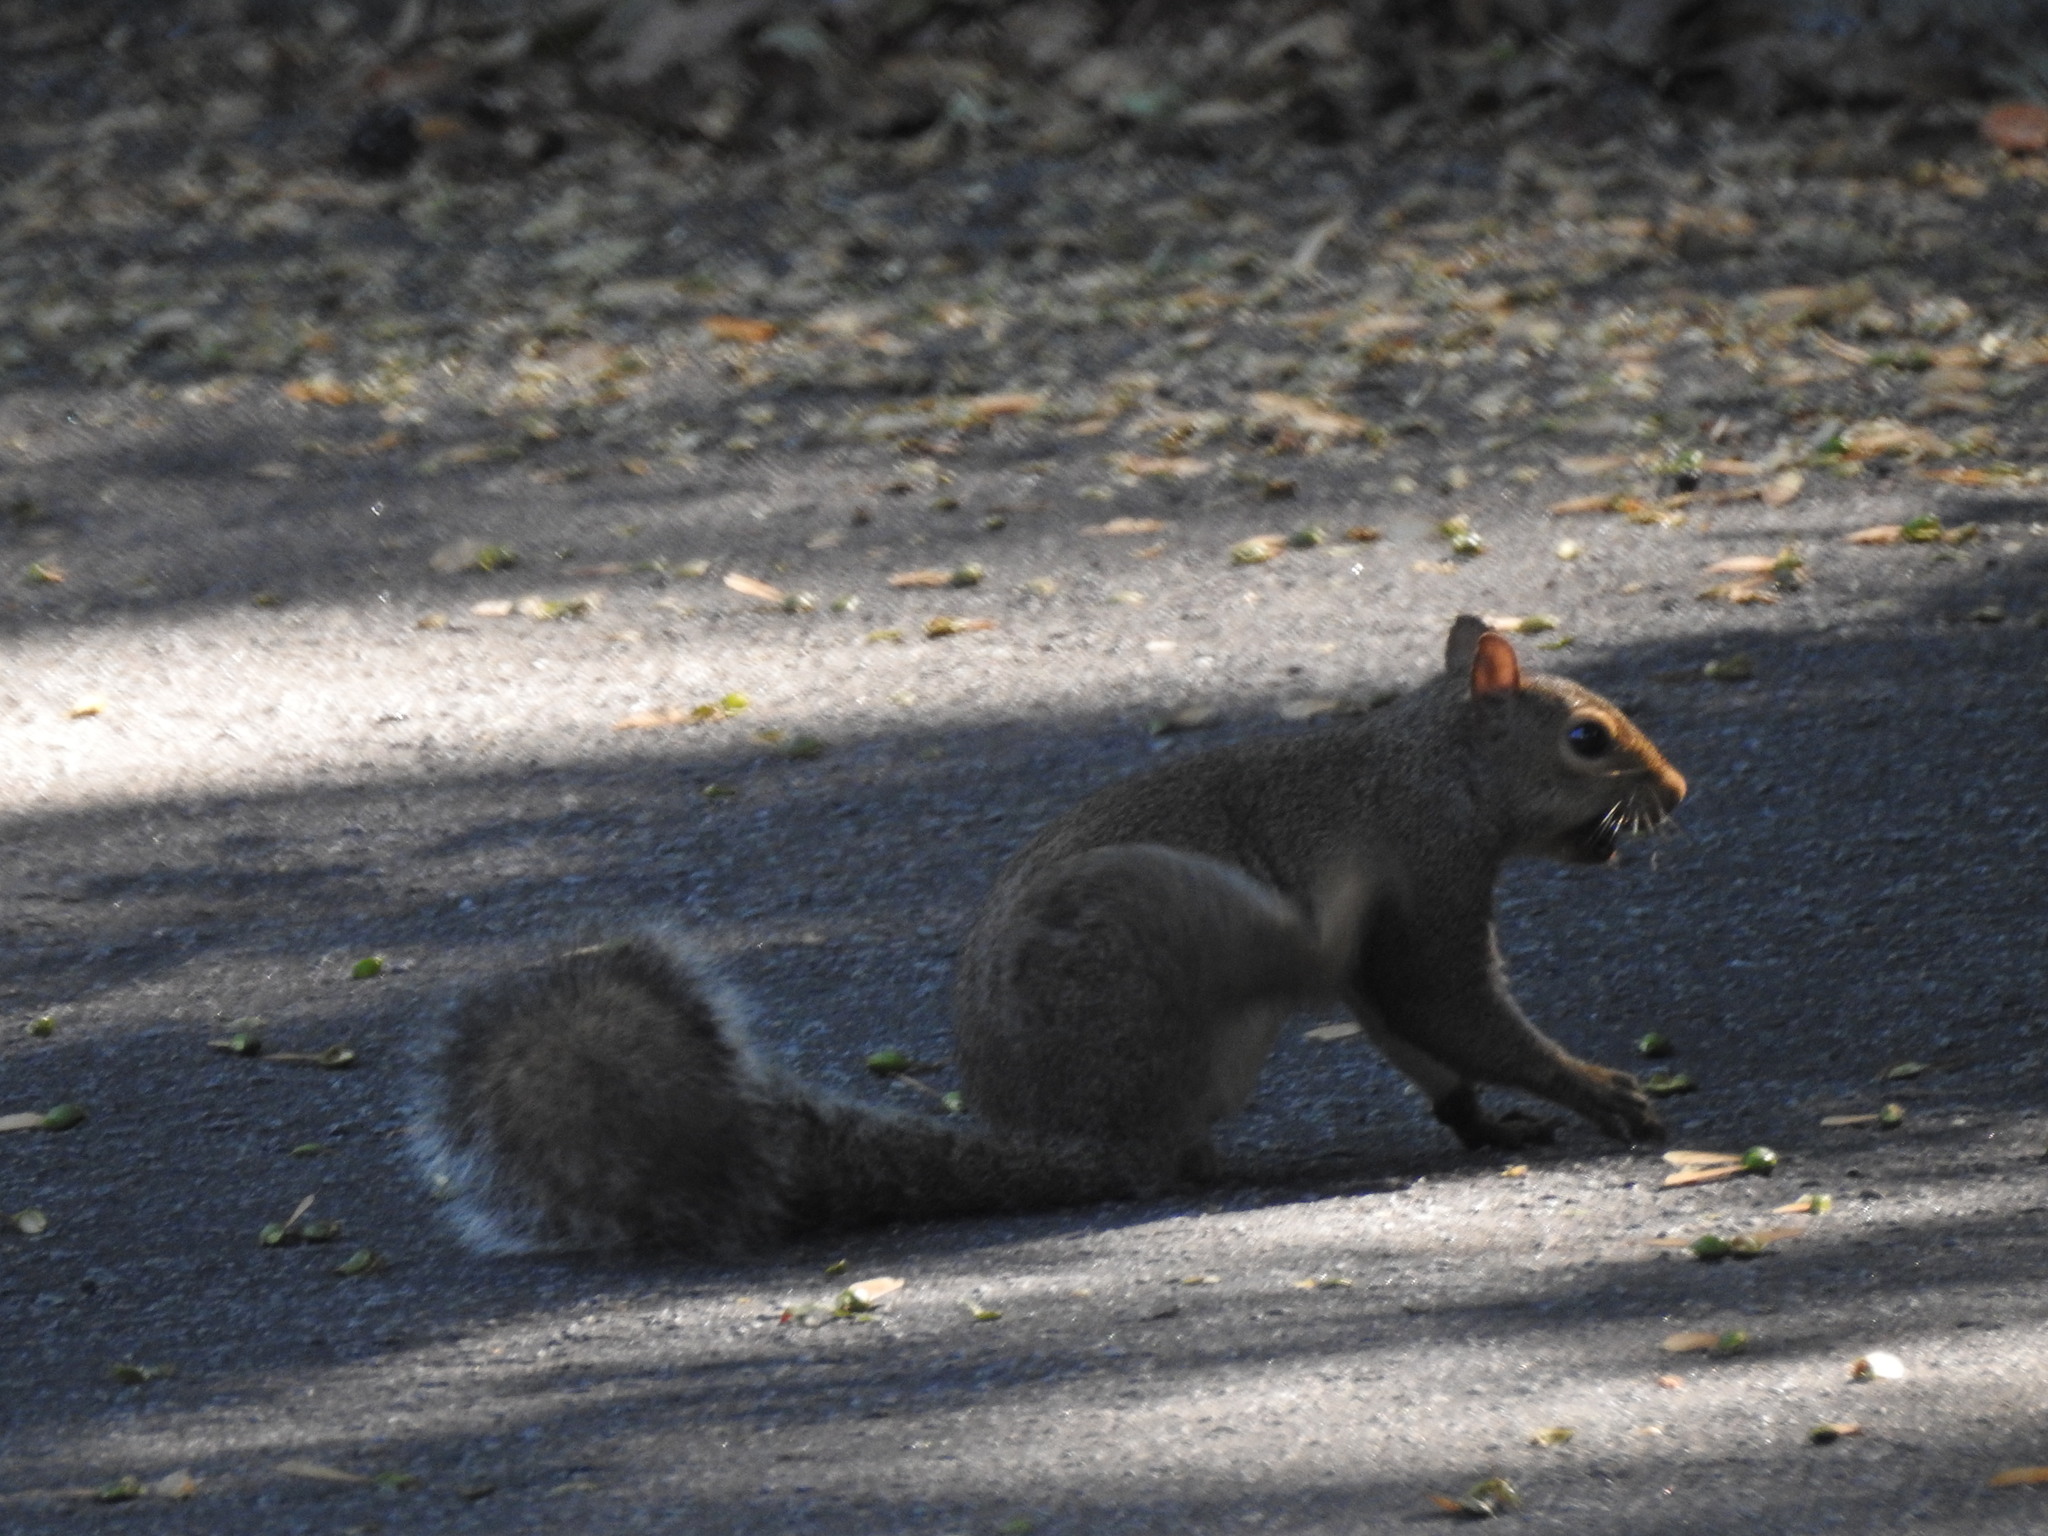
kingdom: Animalia
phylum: Chordata
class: Mammalia
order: Rodentia
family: Sciuridae
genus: Sciurus
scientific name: Sciurus carolinensis
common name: Eastern gray squirrel
